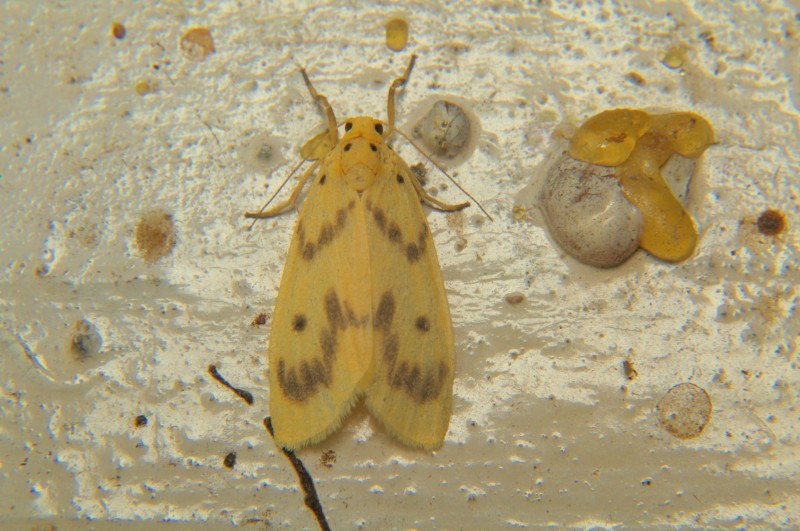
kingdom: Animalia
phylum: Arthropoda
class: Insecta
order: Lepidoptera
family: Erebidae
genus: Miltochrista
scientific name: Miltochrista undulata
